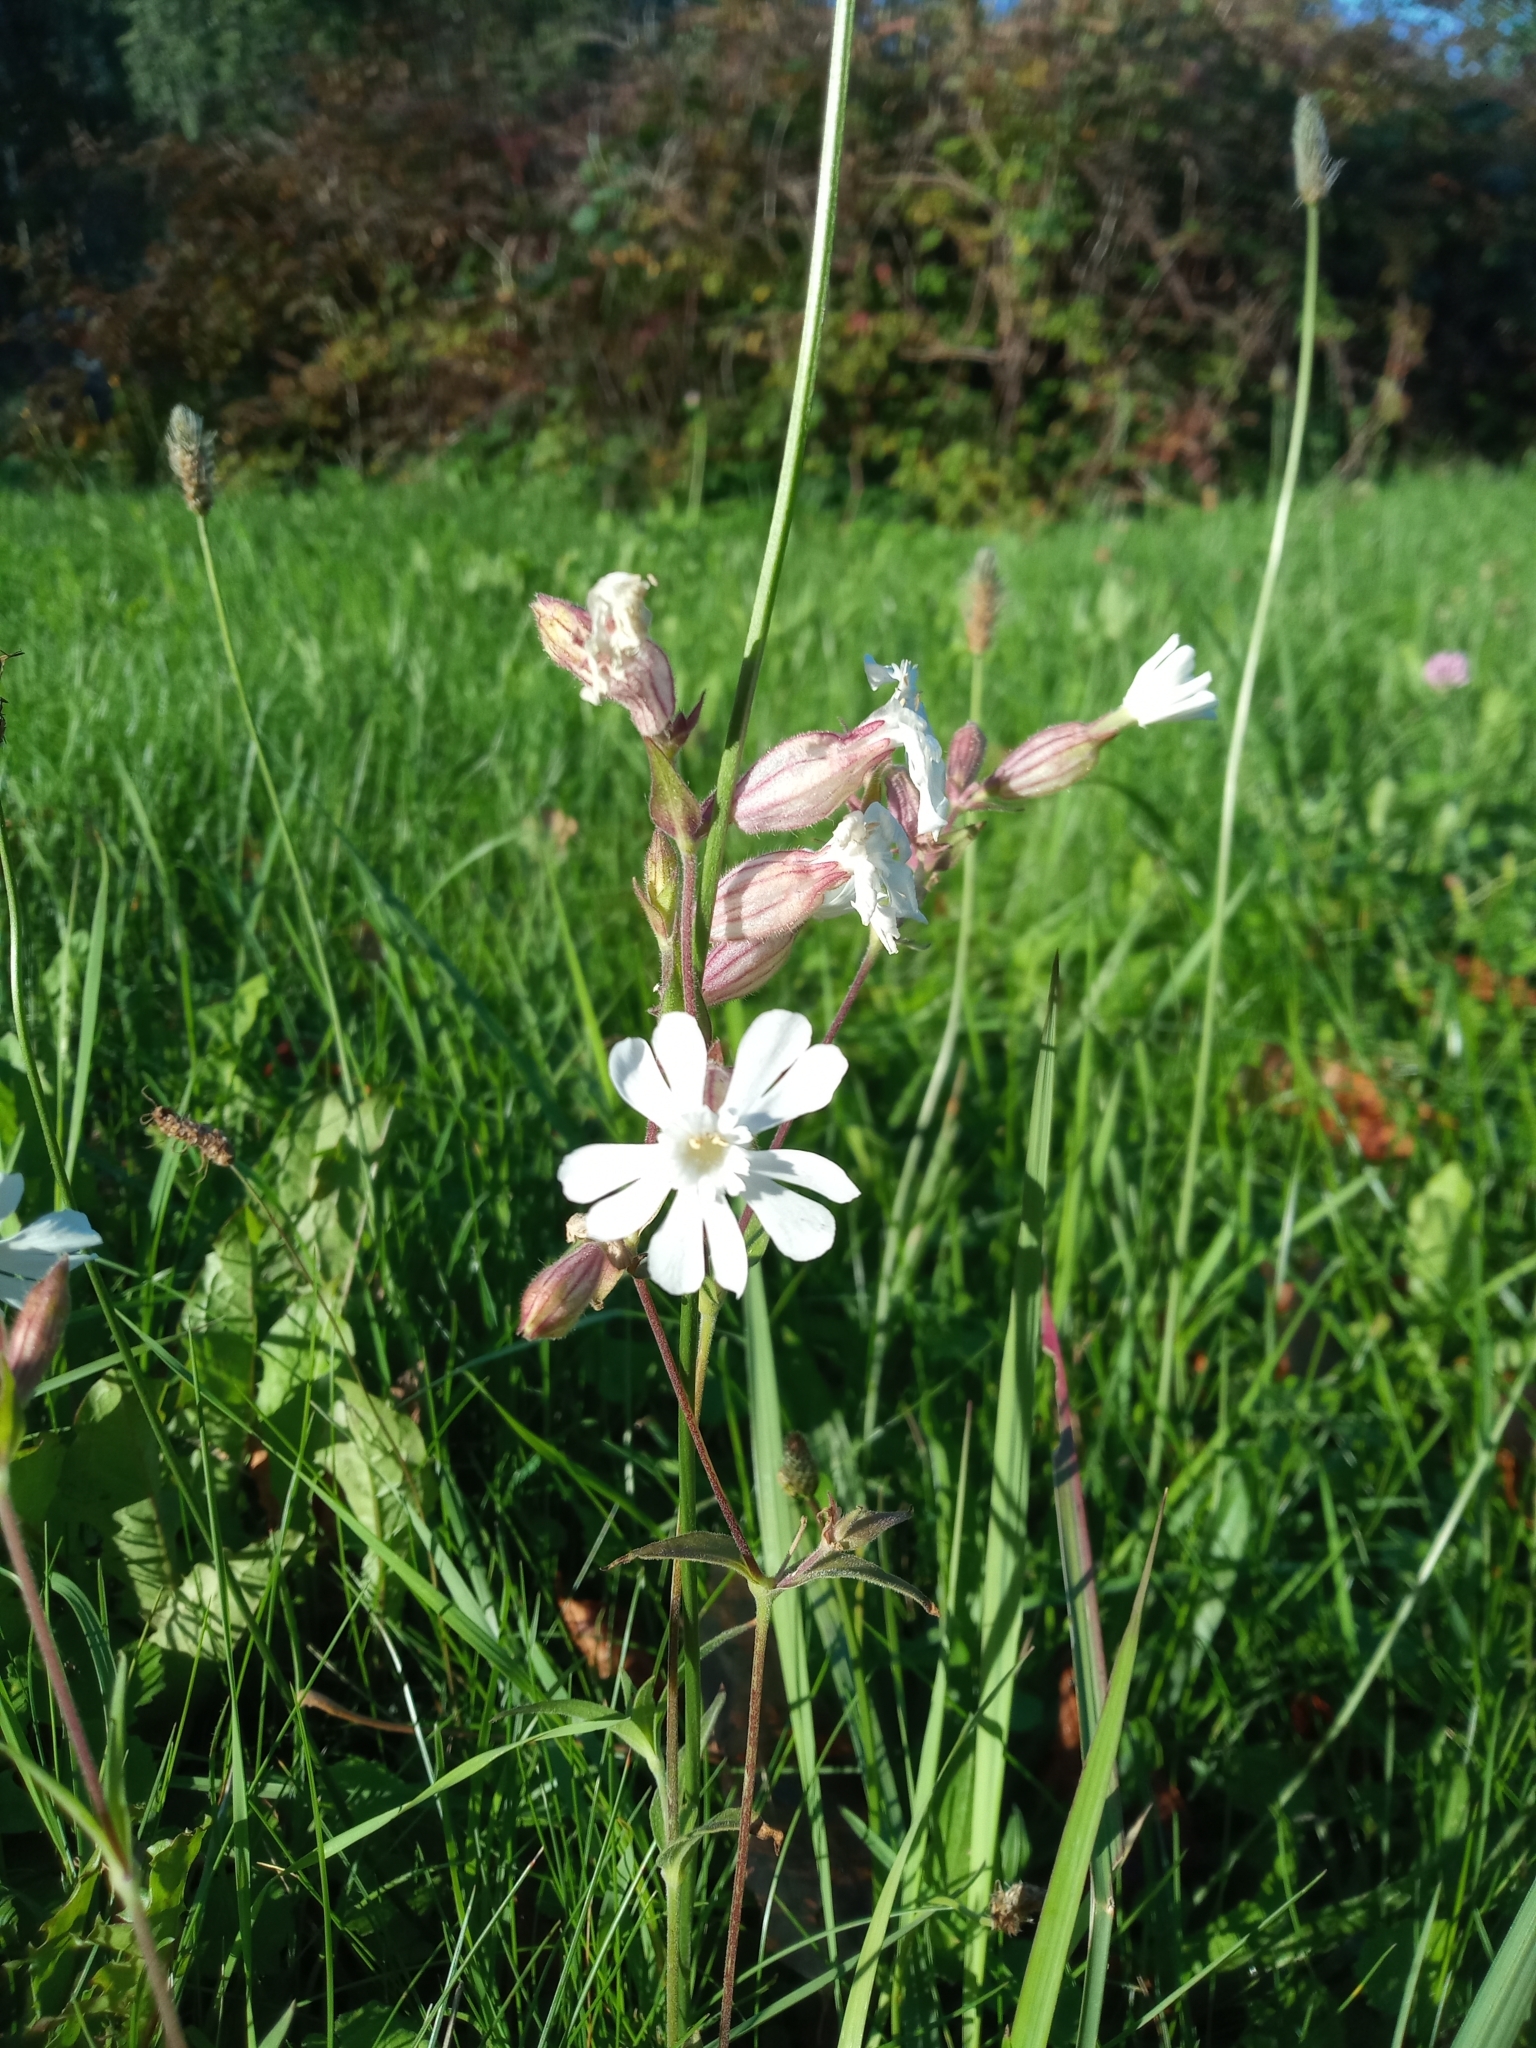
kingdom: Plantae
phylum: Tracheophyta
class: Magnoliopsida
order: Caryophyllales
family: Caryophyllaceae
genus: Silene
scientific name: Silene latifolia
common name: White campion
